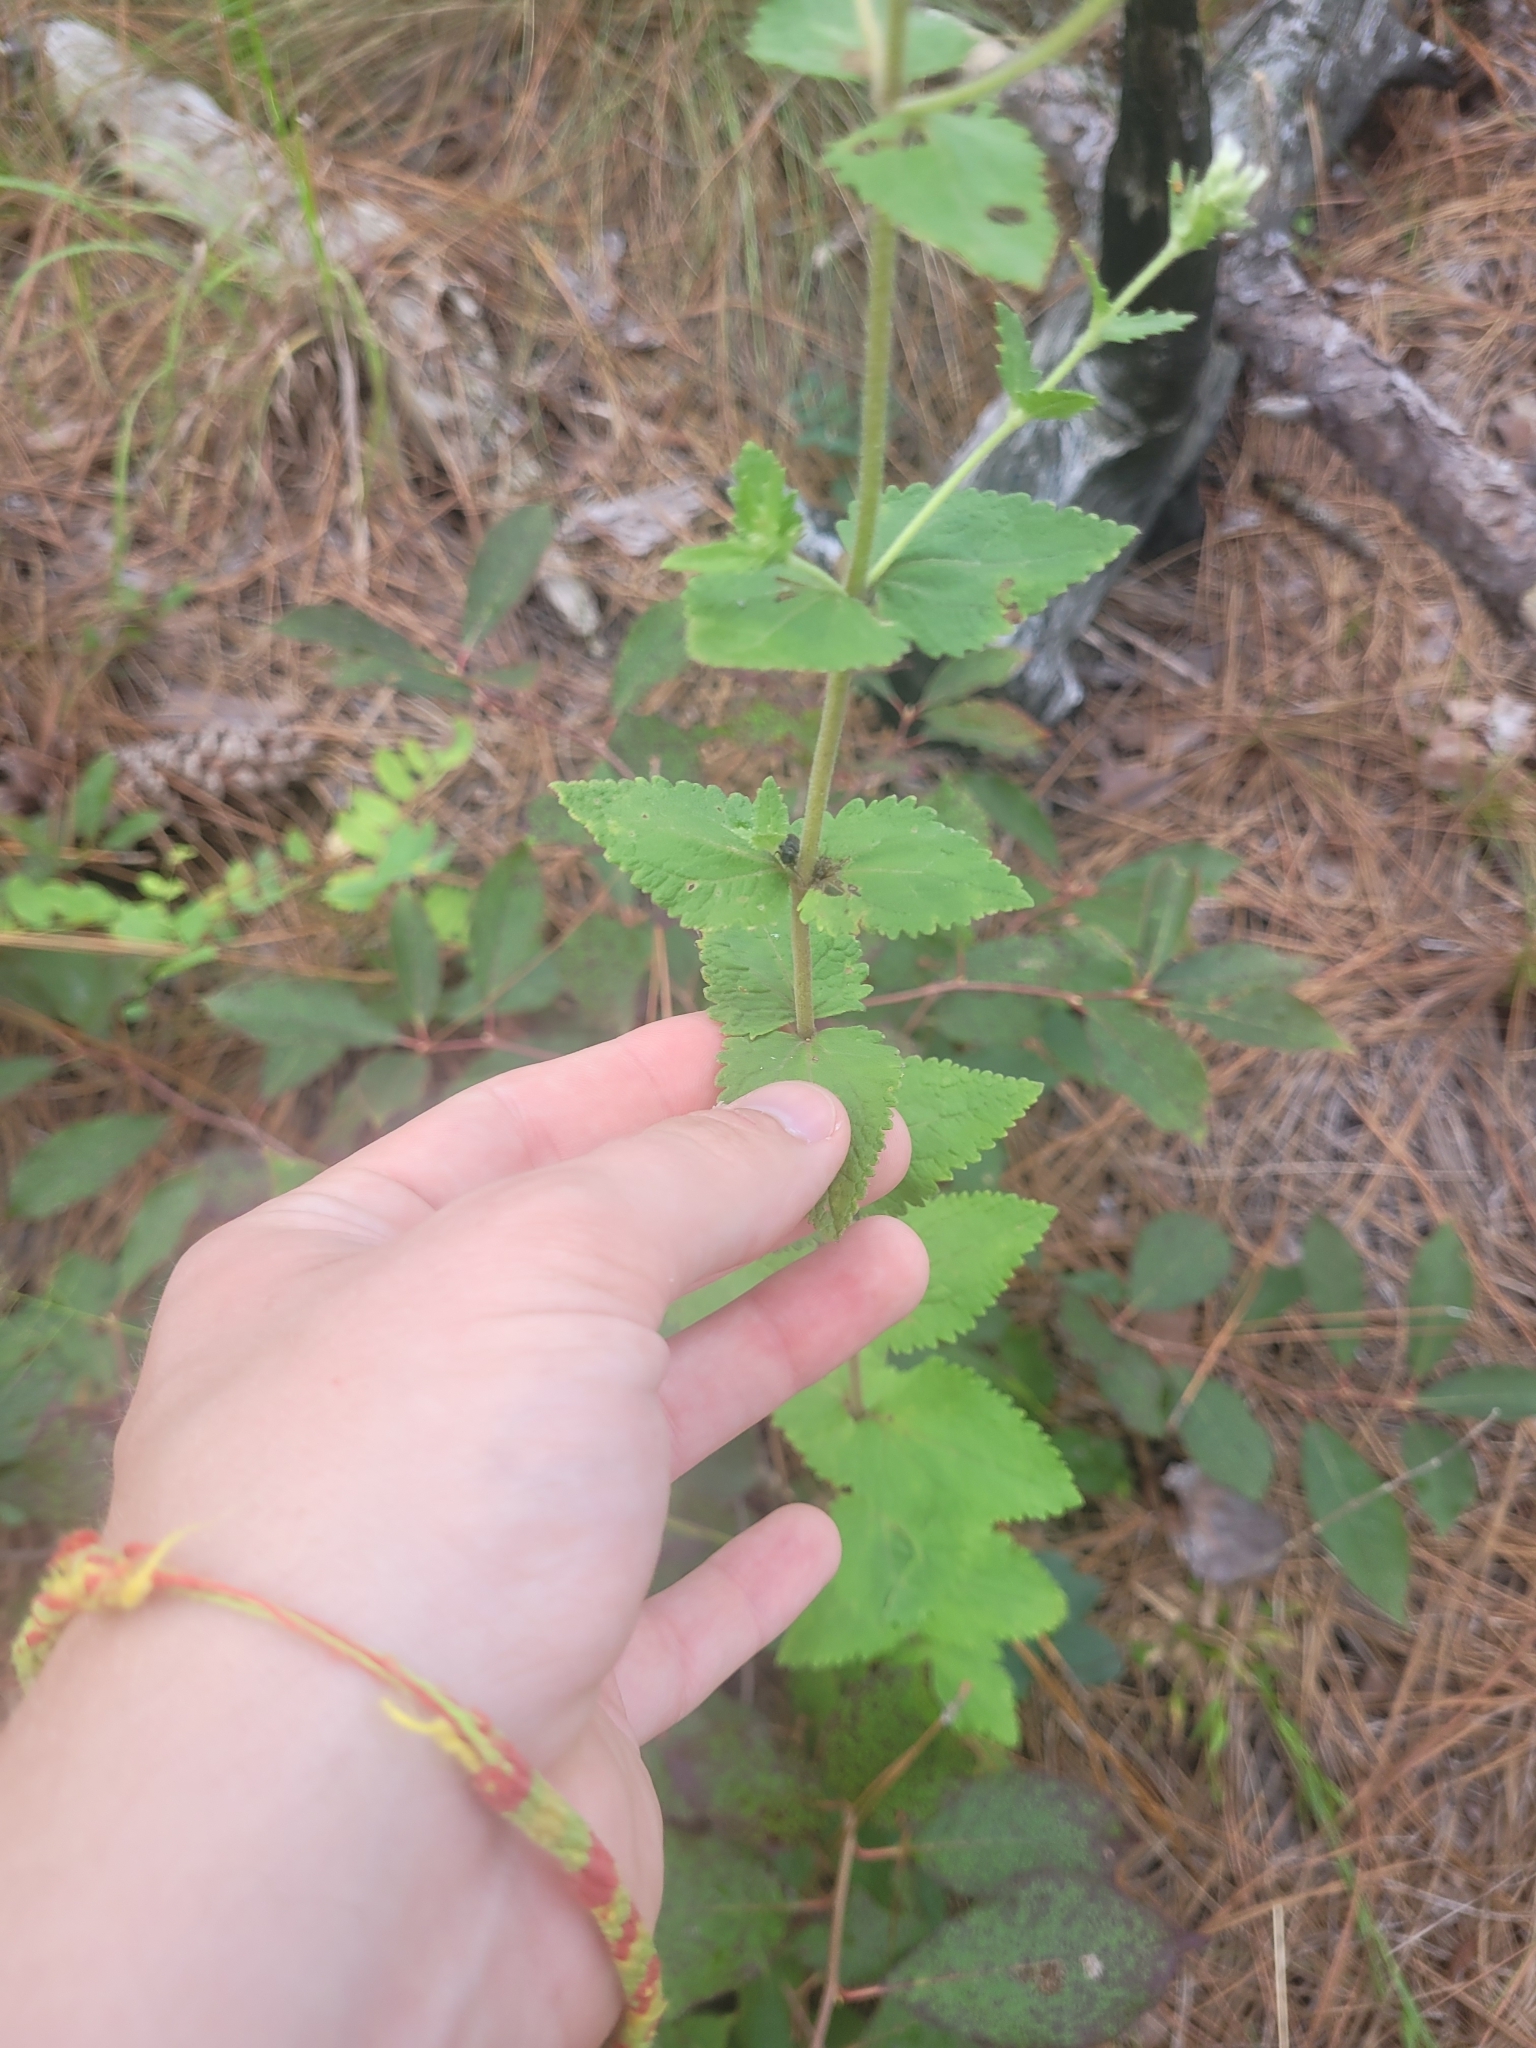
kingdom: Plantae
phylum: Tracheophyta
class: Magnoliopsida
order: Asterales
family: Asteraceae
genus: Eupatorium
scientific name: Eupatorium rotundifolium
